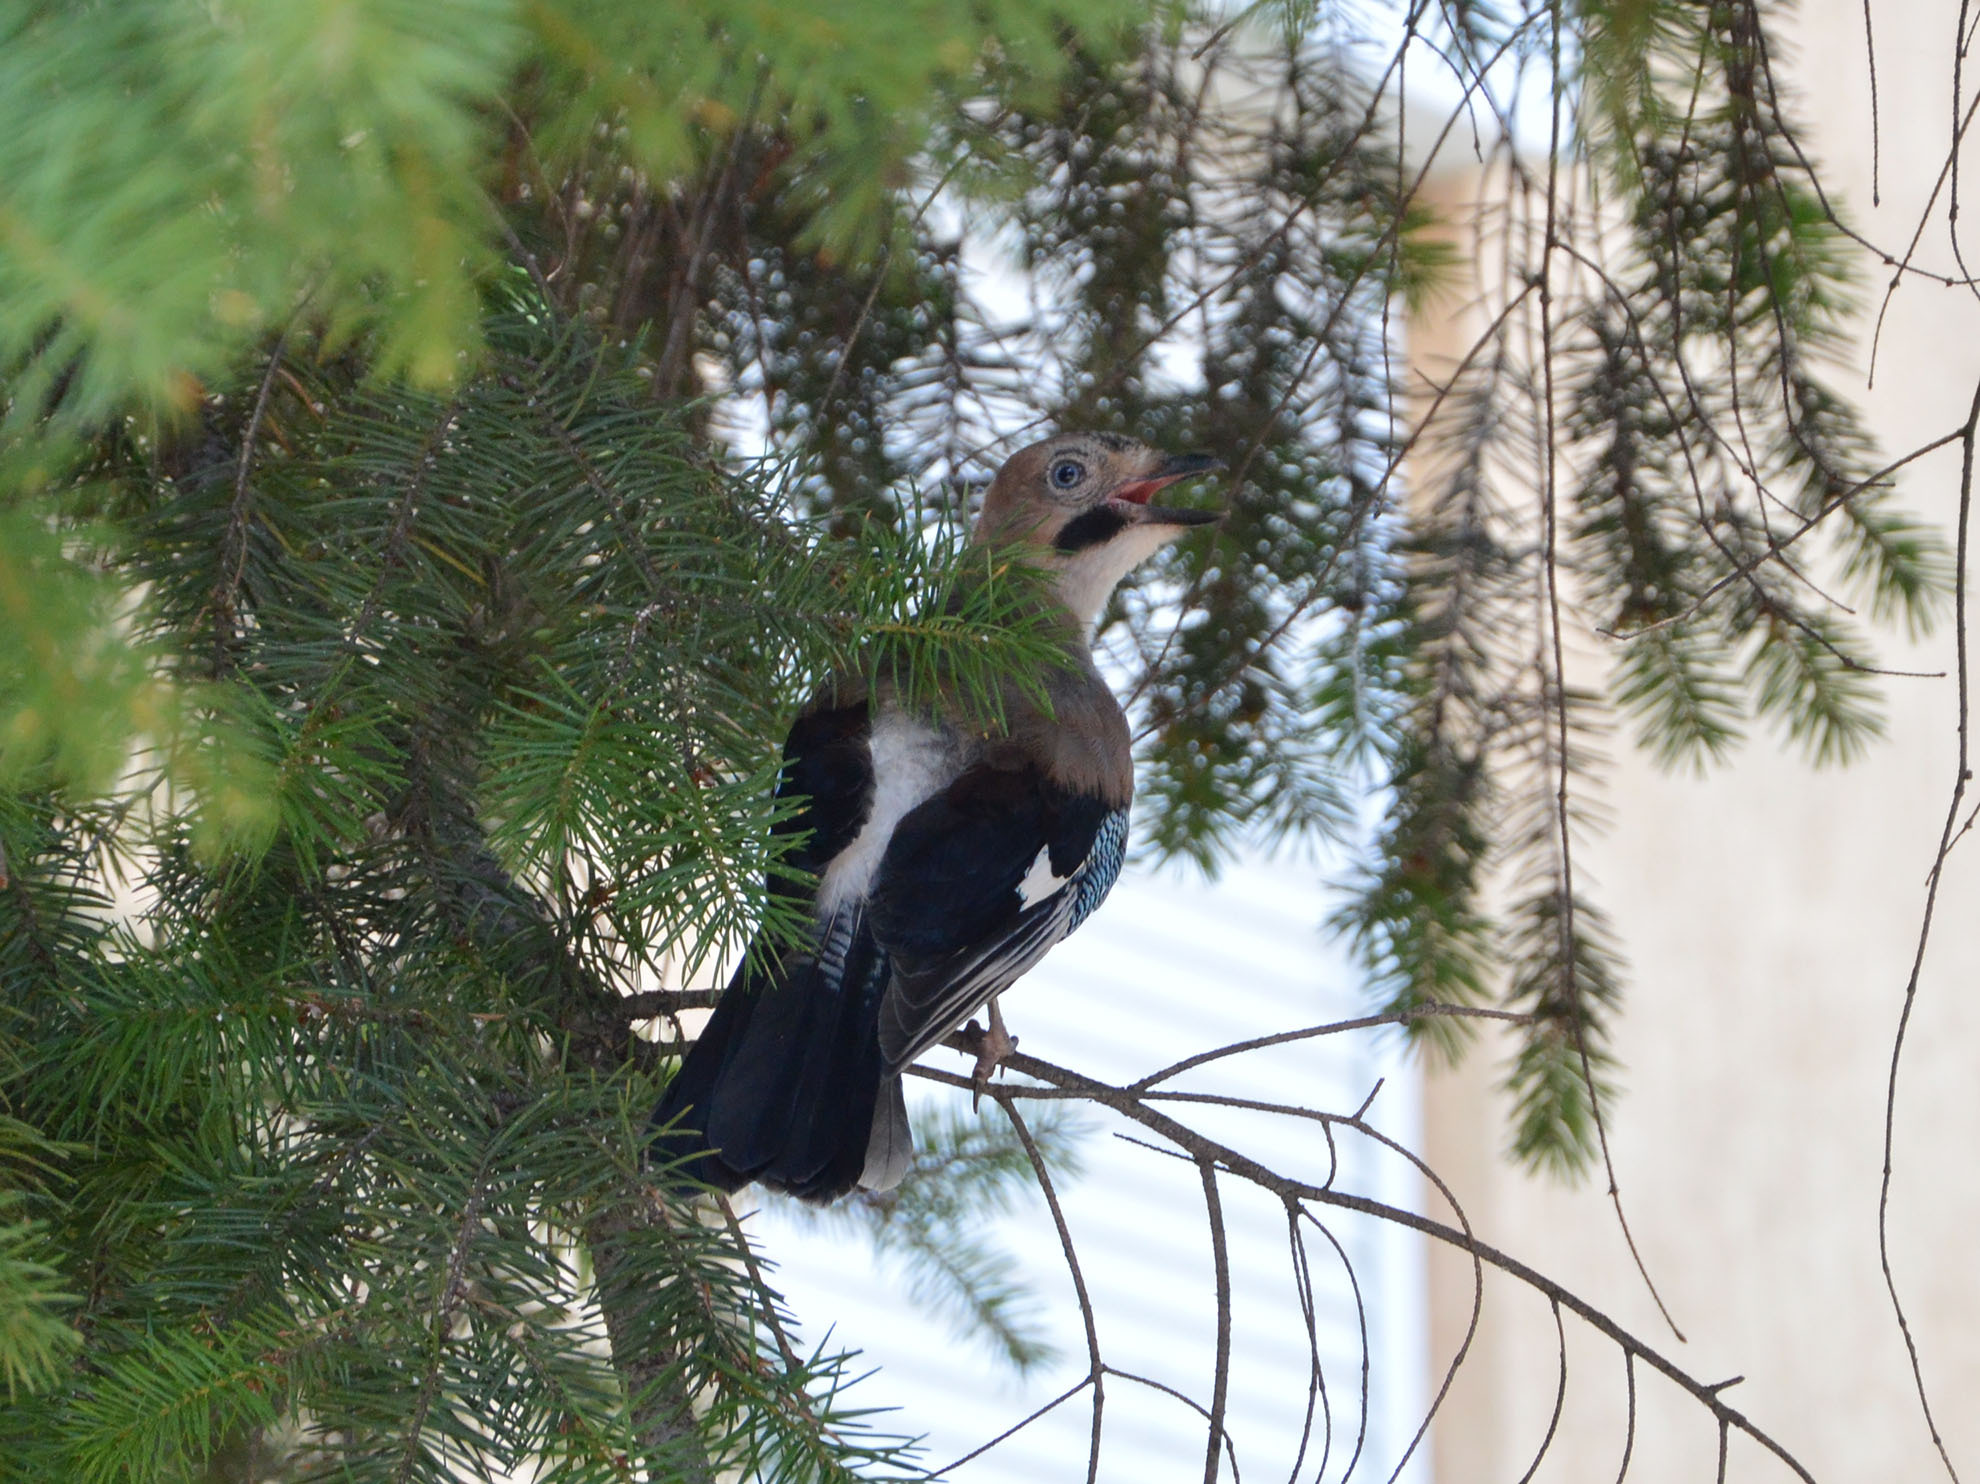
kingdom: Animalia
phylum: Chordata
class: Aves
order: Passeriformes
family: Corvidae
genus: Garrulus
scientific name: Garrulus glandarius
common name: Eurasian jay
